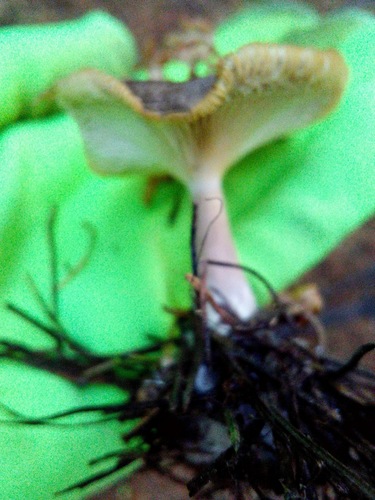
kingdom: Fungi
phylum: Basidiomycota
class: Agaricomycetes
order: Agaricales
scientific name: Agaricales
